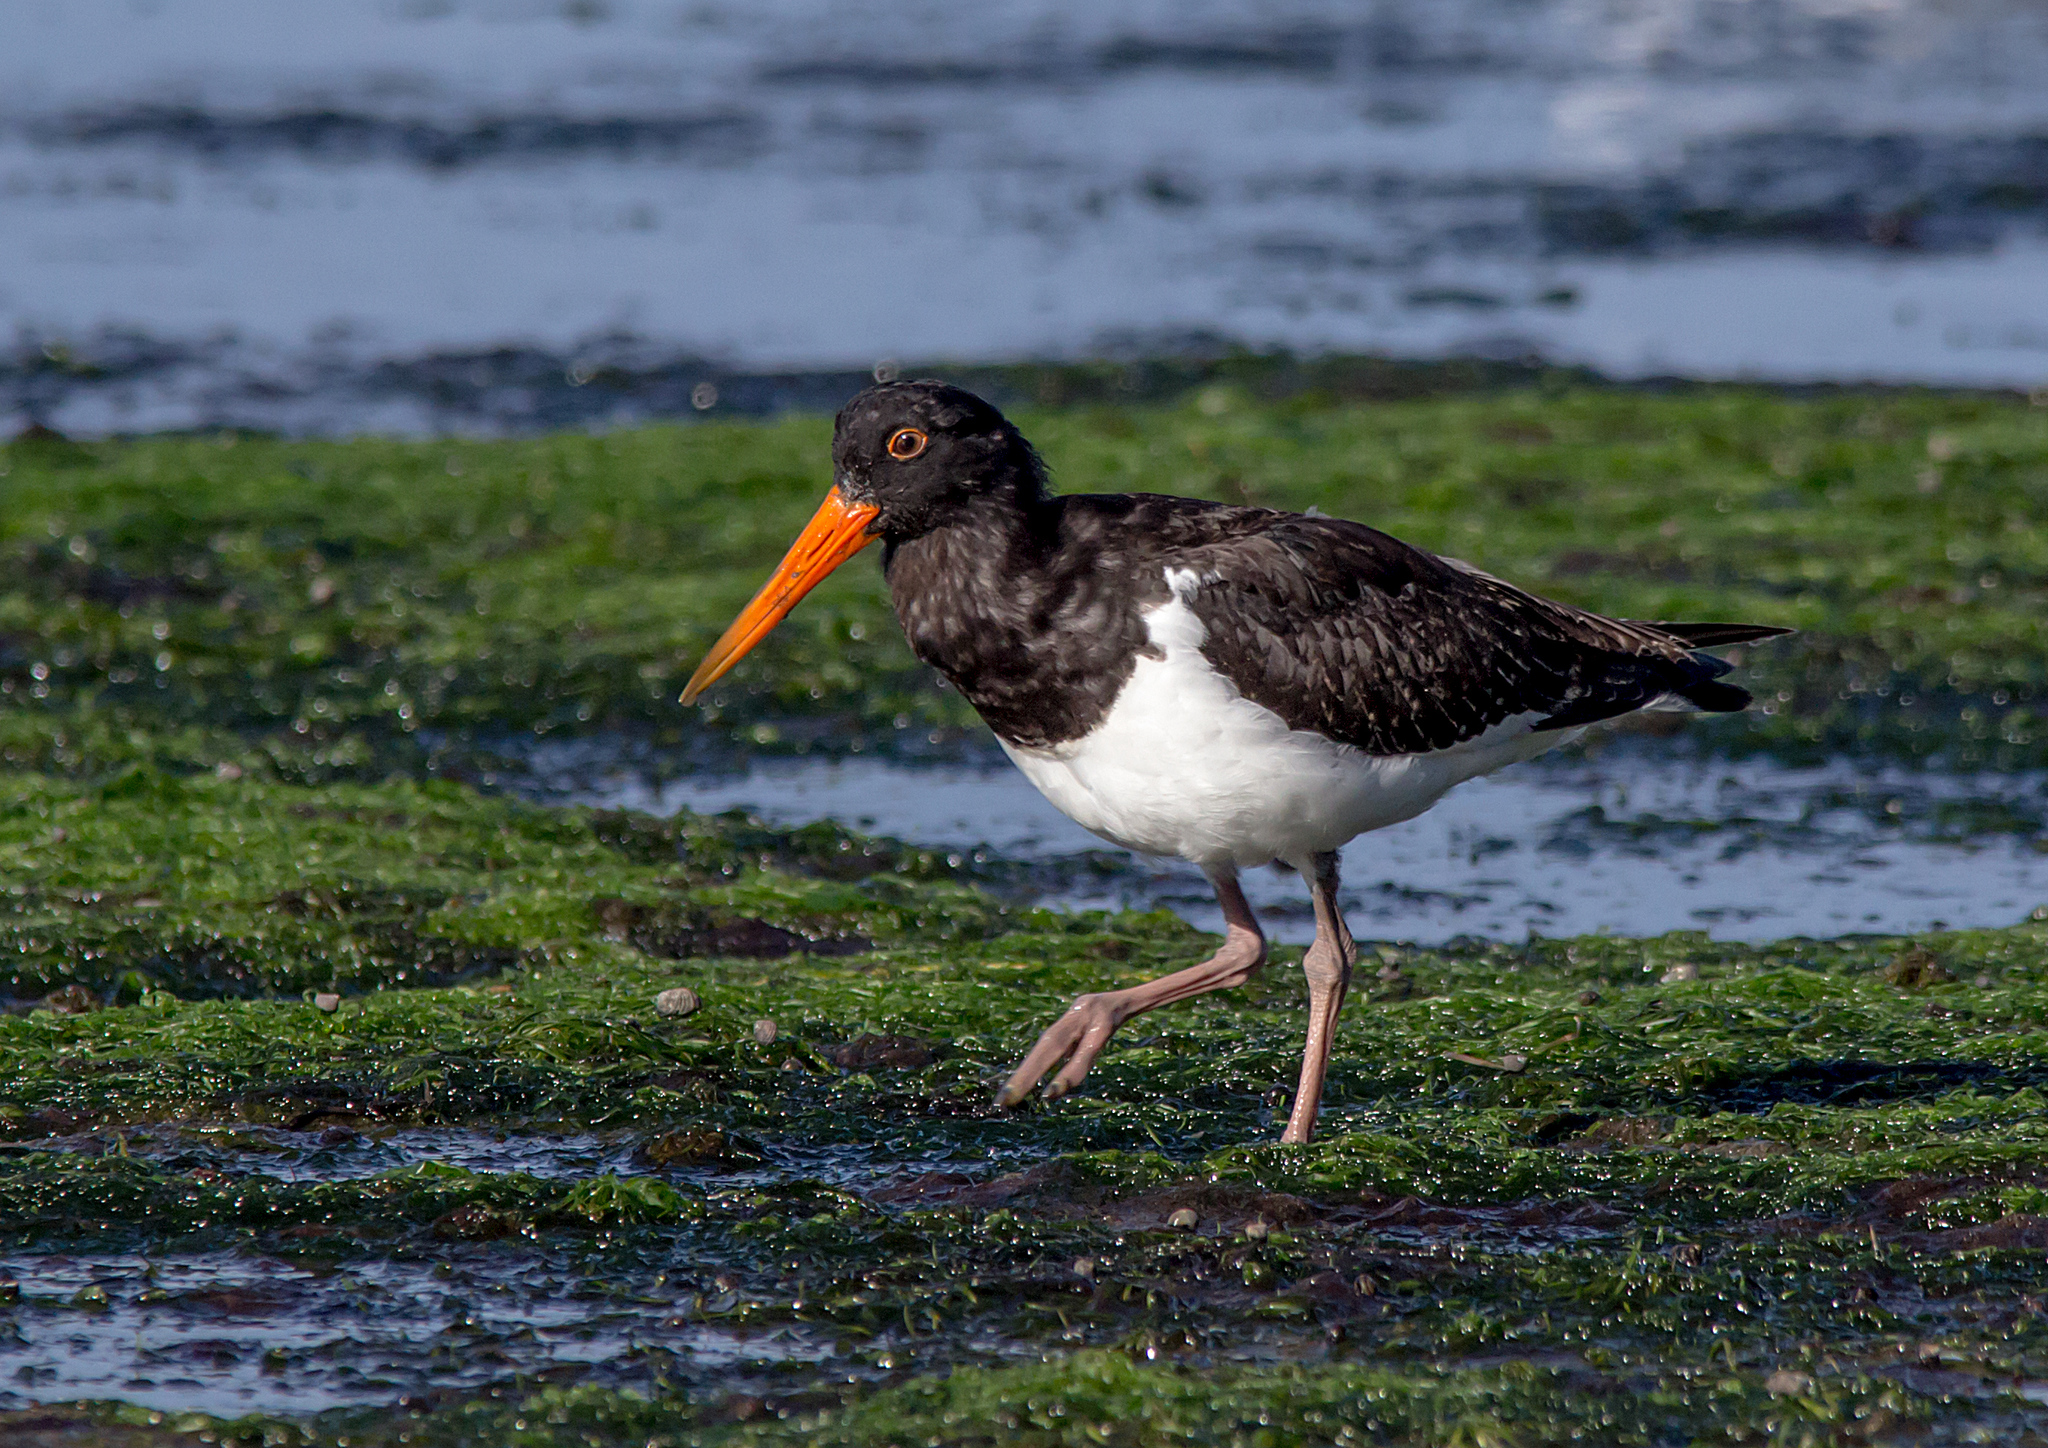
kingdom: Animalia
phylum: Chordata
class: Aves
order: Charadriiformes
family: Haematopodidae
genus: Haematopus
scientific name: Haematopus longirostris
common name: Pied oystercatcher
